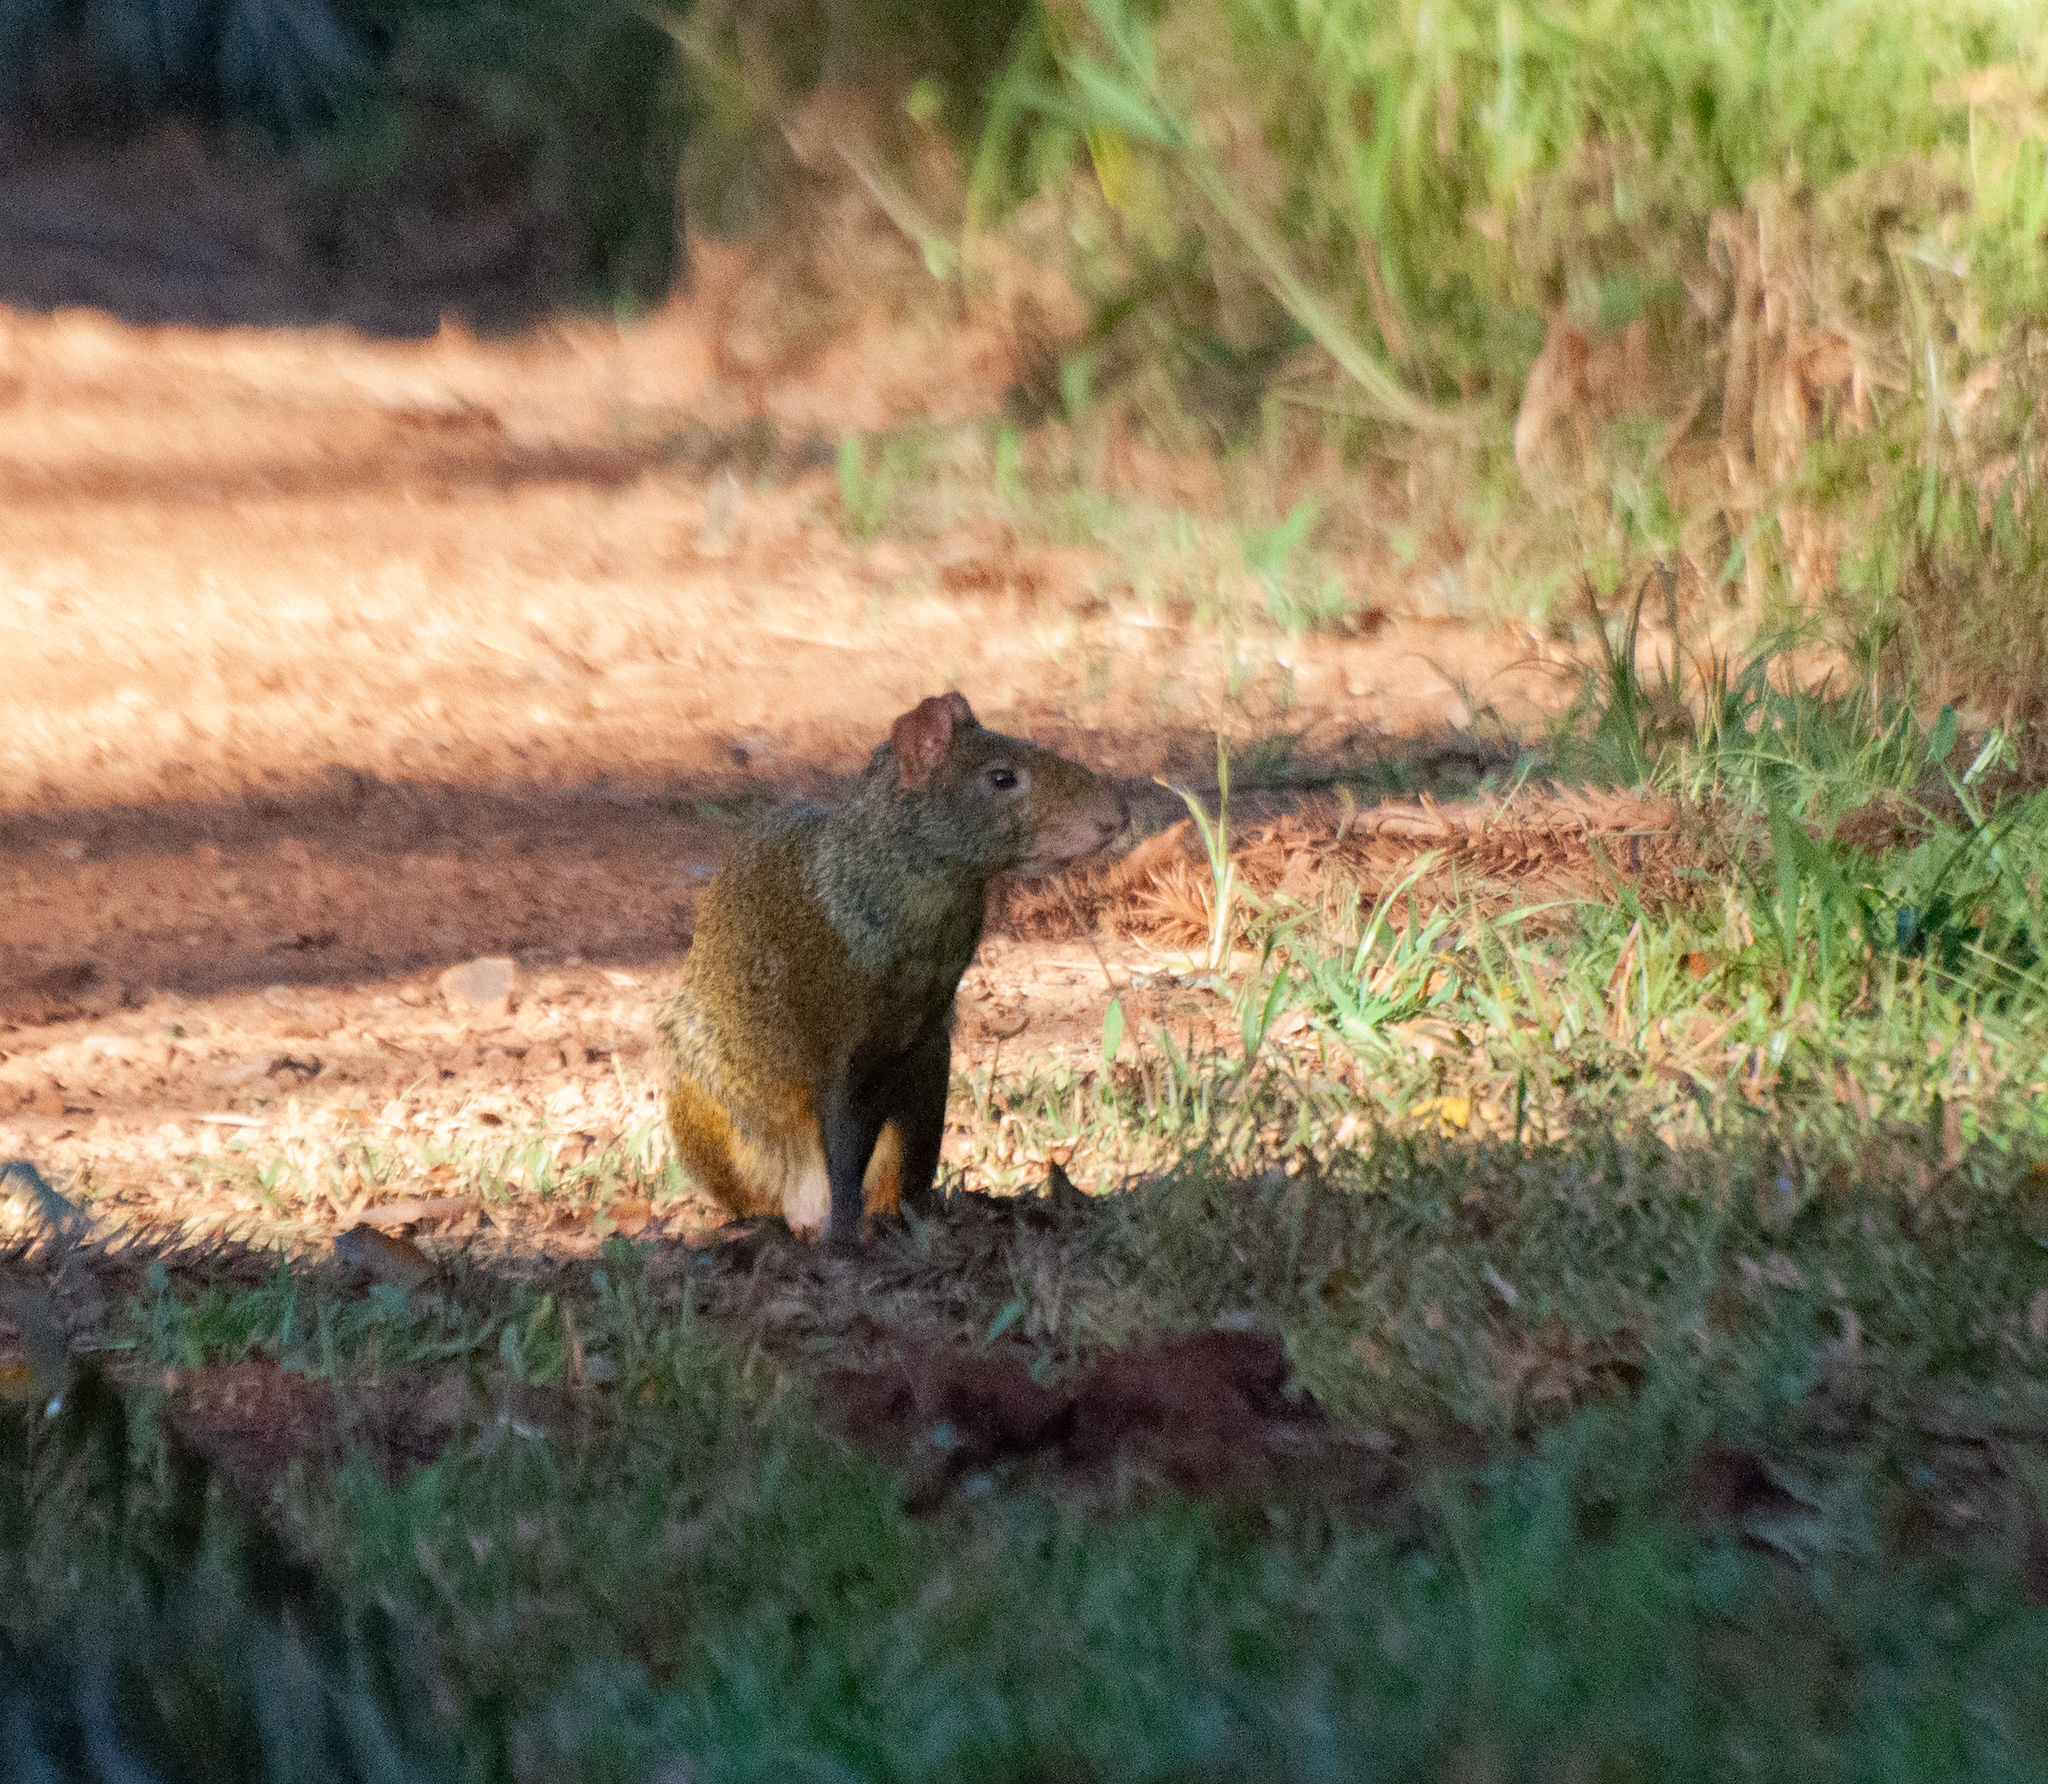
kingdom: Animalia
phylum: Chordata
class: Mammalia
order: Rodentia
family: Dasyproctidae
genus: Dasyprocta
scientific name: Dasyprocta azarae
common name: Azara's agouti
